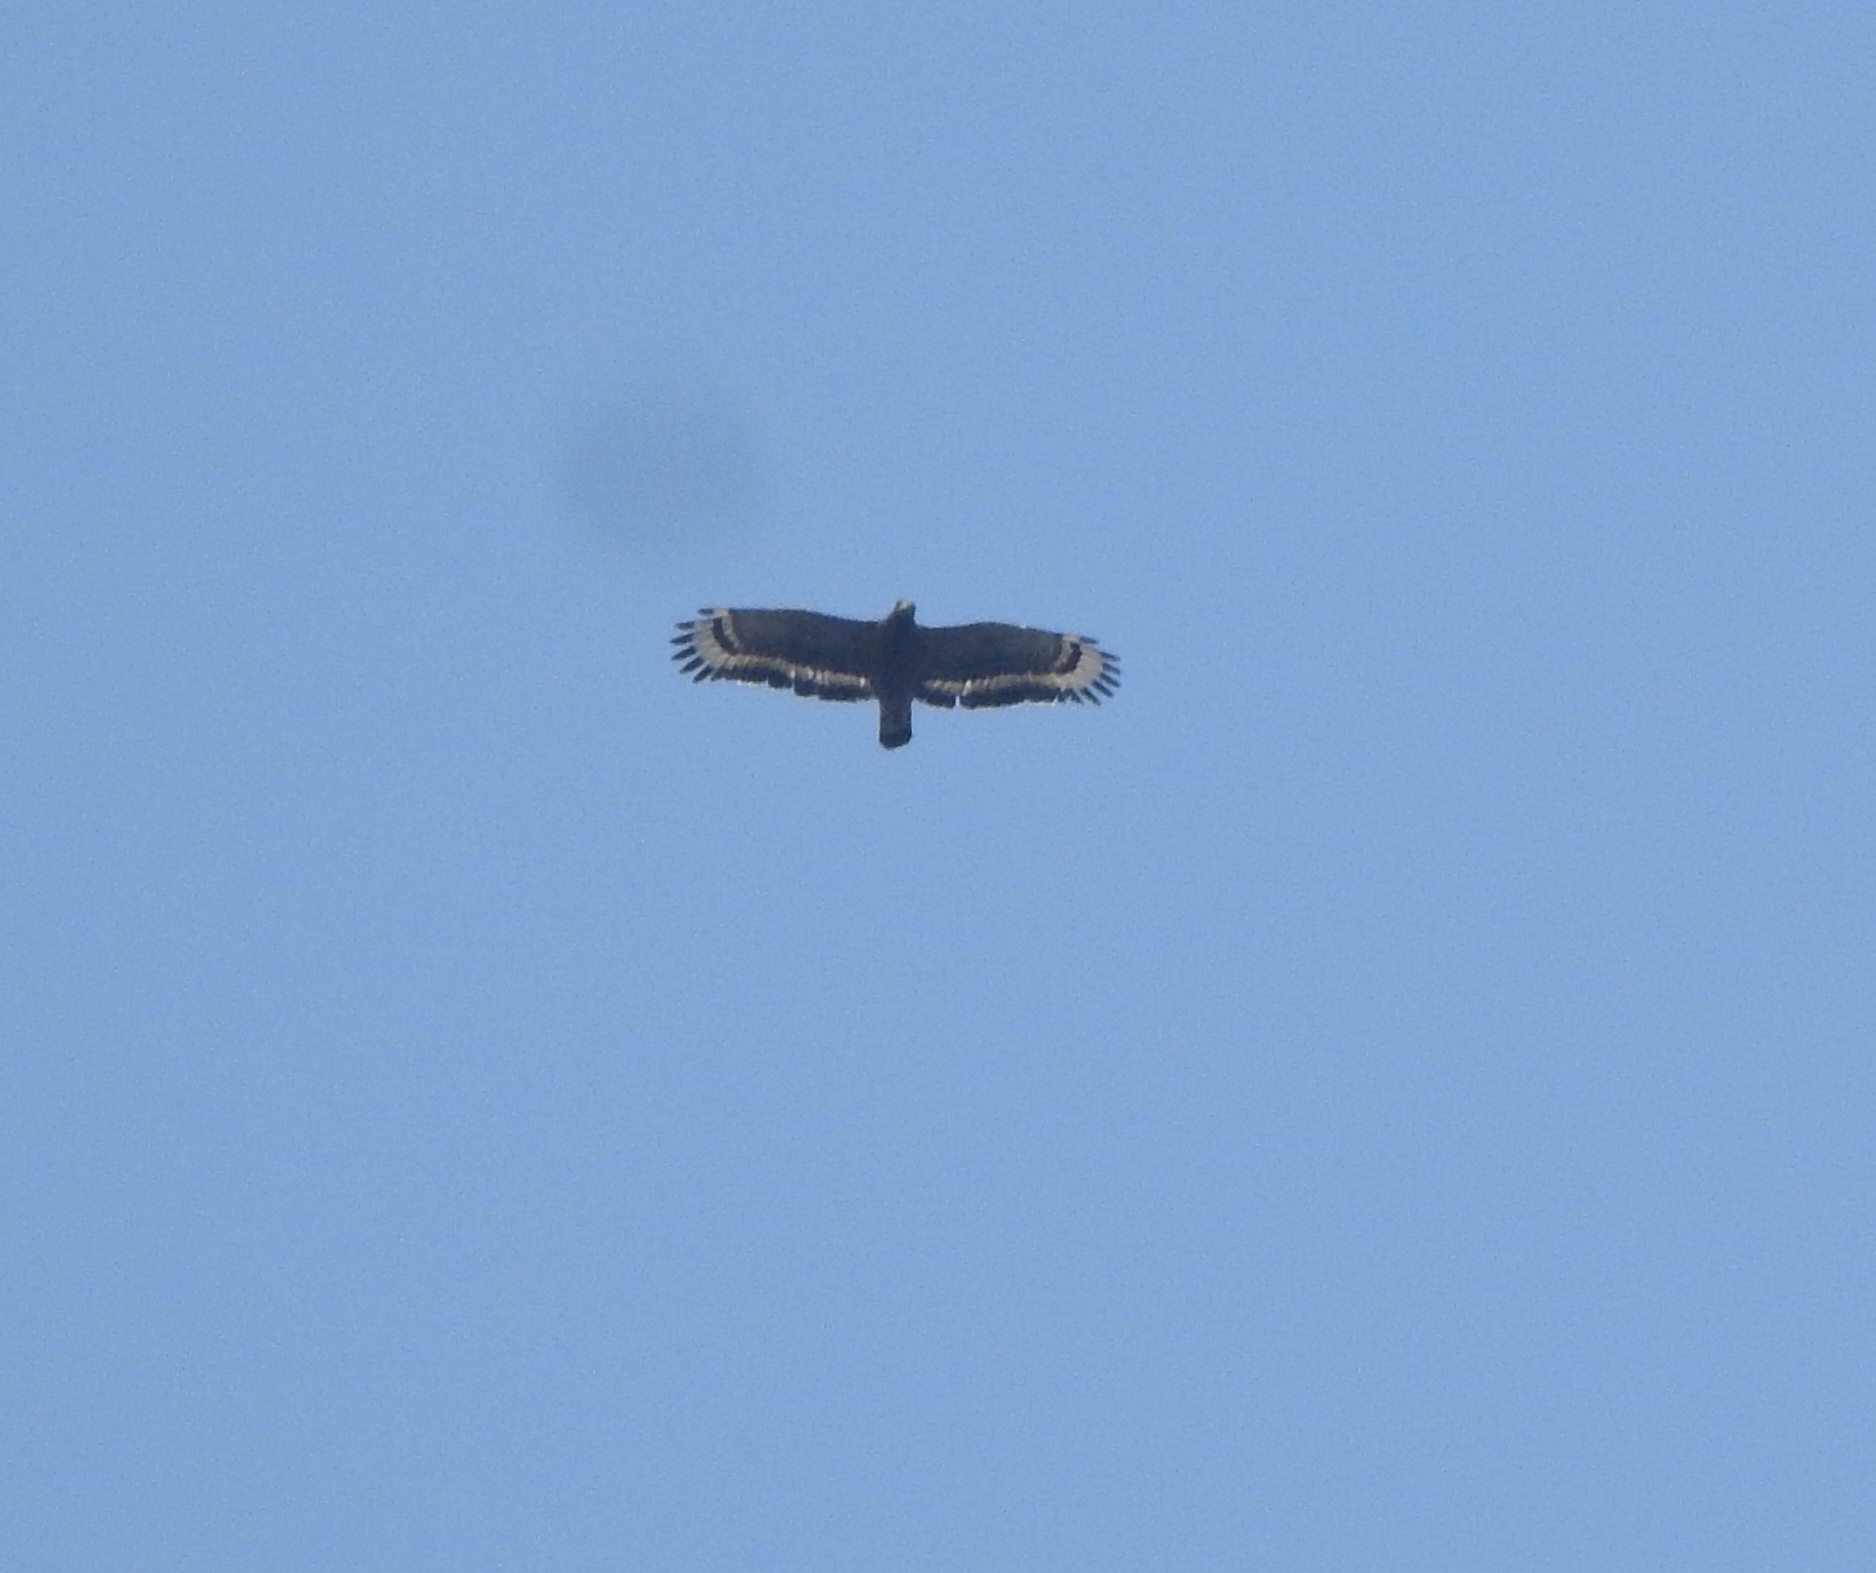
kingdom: Animalia
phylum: Chordata
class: Aves
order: Accipitriformes
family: Accipitridae
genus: Spilornis
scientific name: Spilornis cheela
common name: Crested serpent eagle
